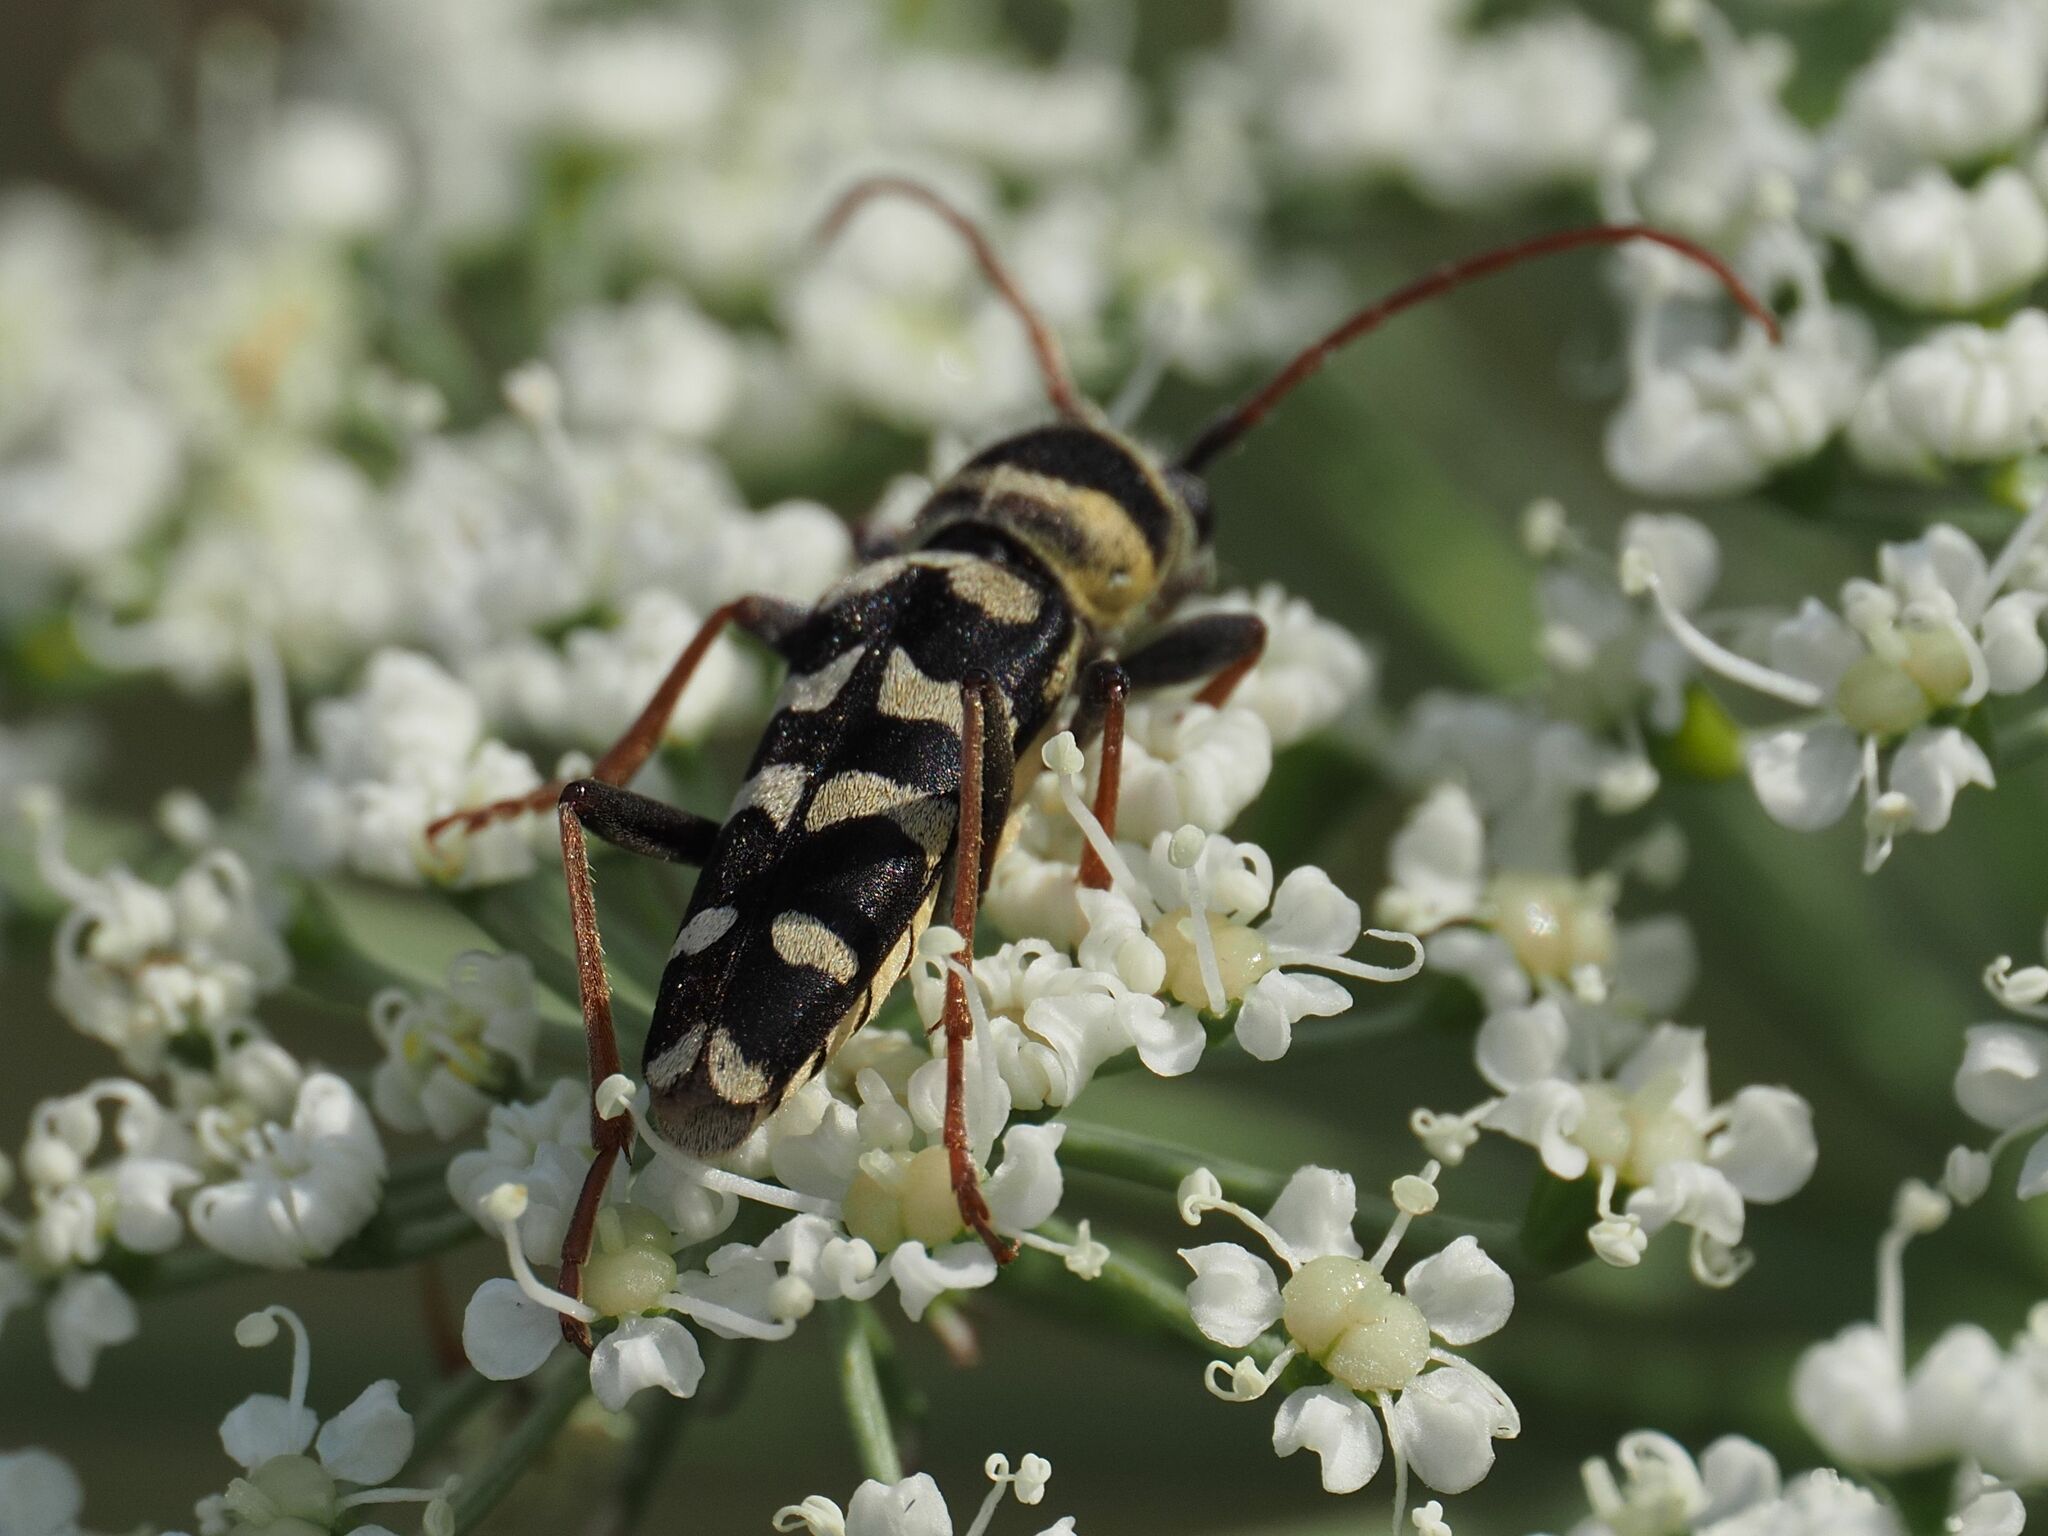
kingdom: Animalia
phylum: Arthropoda
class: Insecta
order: Coleoptera
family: Cerambycidae
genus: Plagionotus
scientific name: Plagionotus floralis
